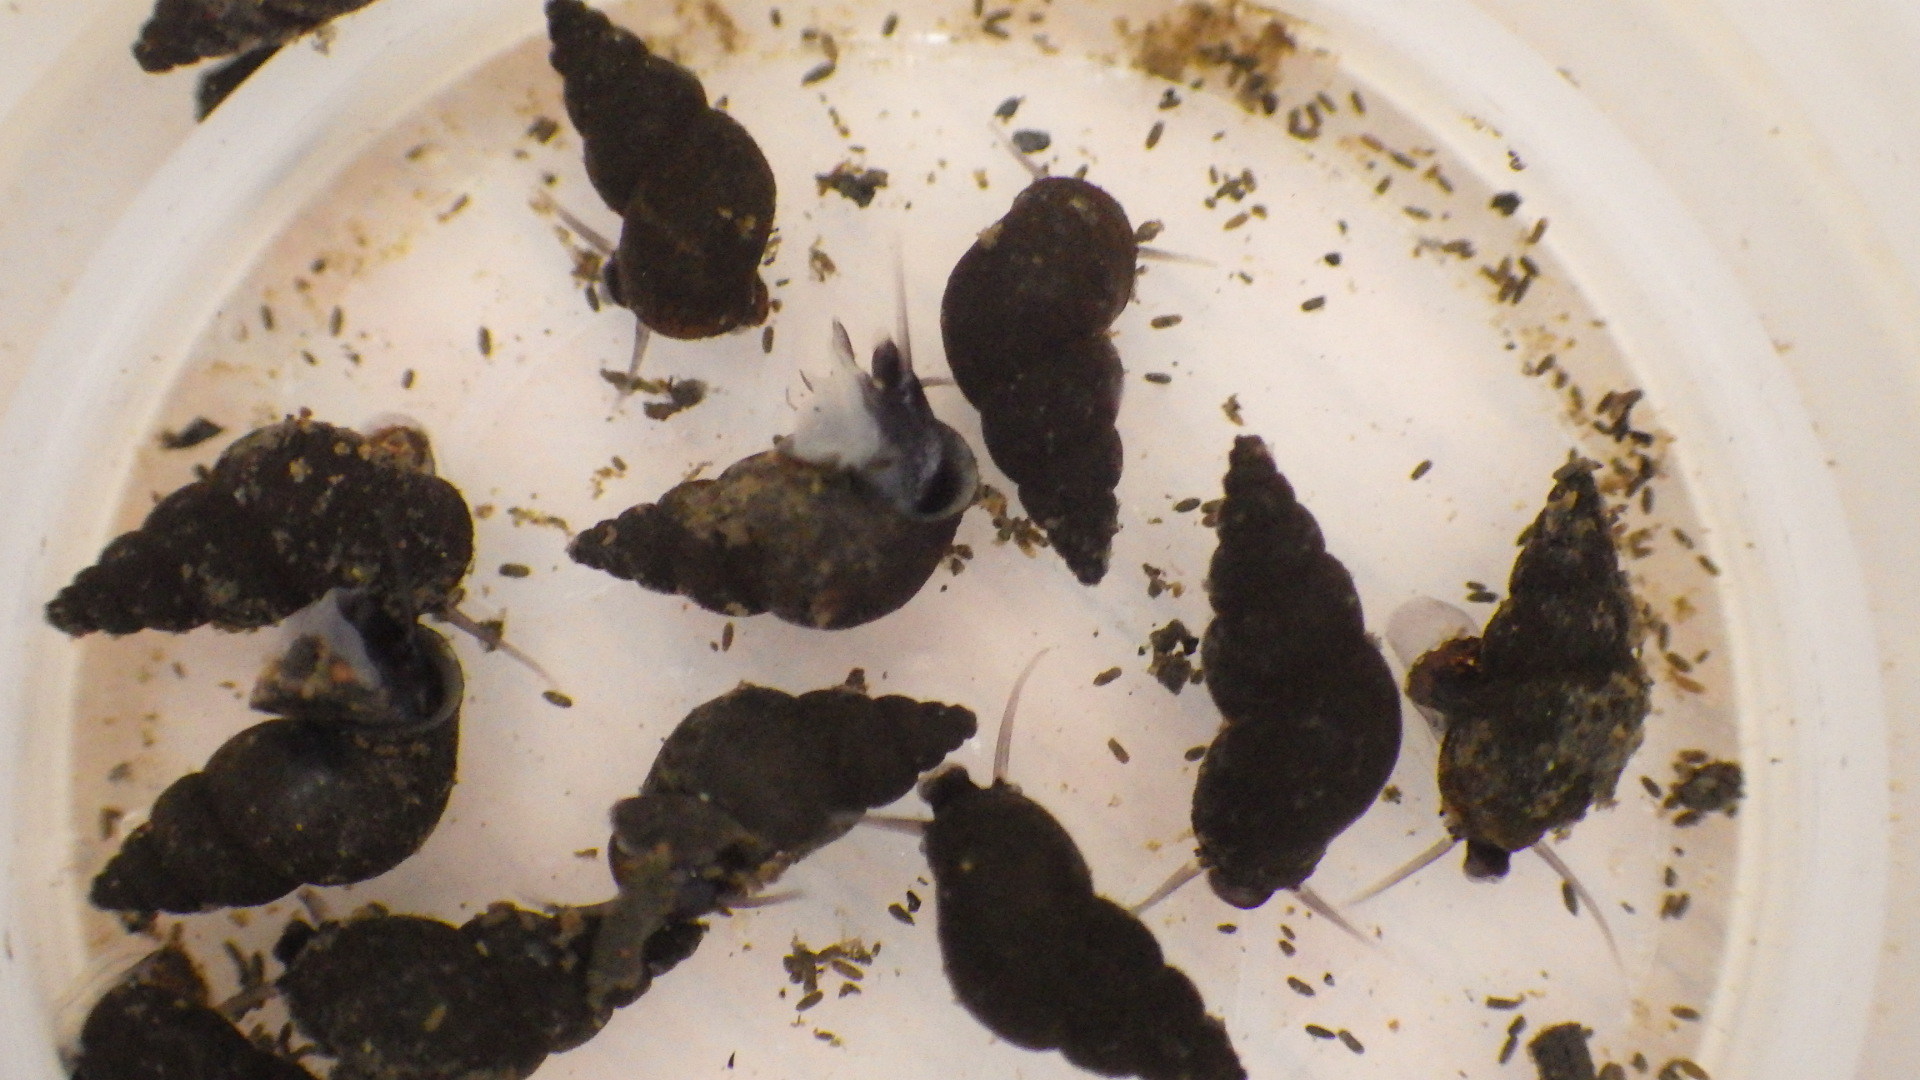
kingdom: Animalia
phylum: Mollusca
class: Gastropoda
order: Littorinimorpha
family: Tateidae
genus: Potamopyrgus
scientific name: Potamopyrgus antipodarum
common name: Jenkins' spire snail
